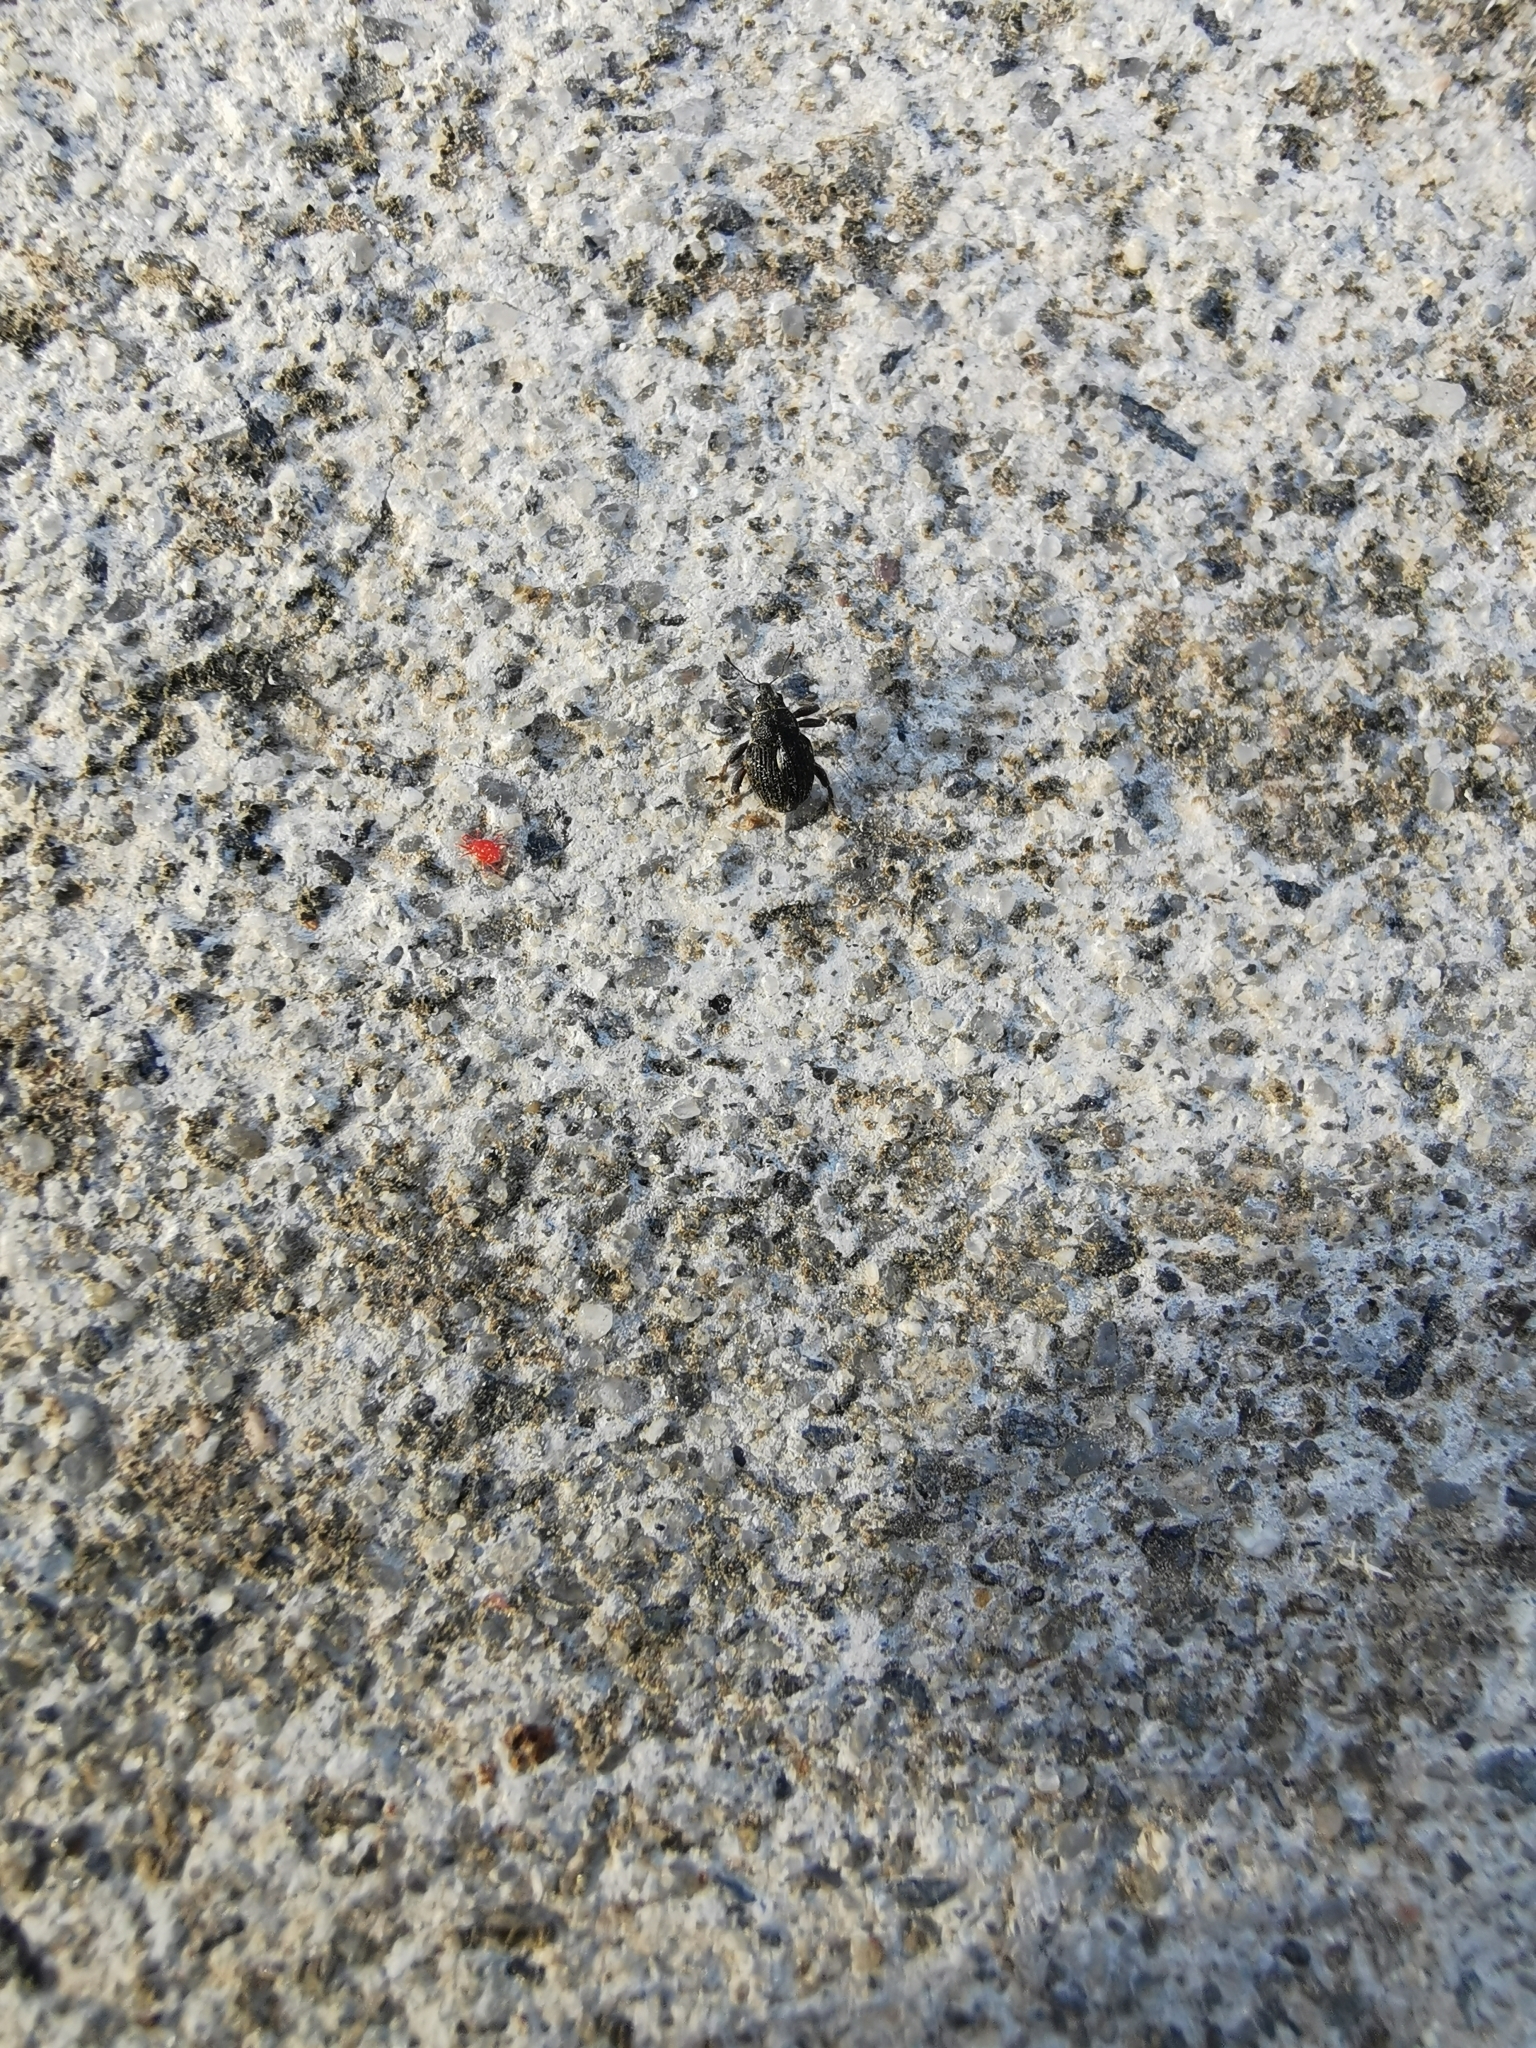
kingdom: Animalia
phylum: Arthropoda
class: Insecta
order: Coleoptera
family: Curculionidae
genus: Rhinoncus
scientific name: Rhinoncus leucostigma
